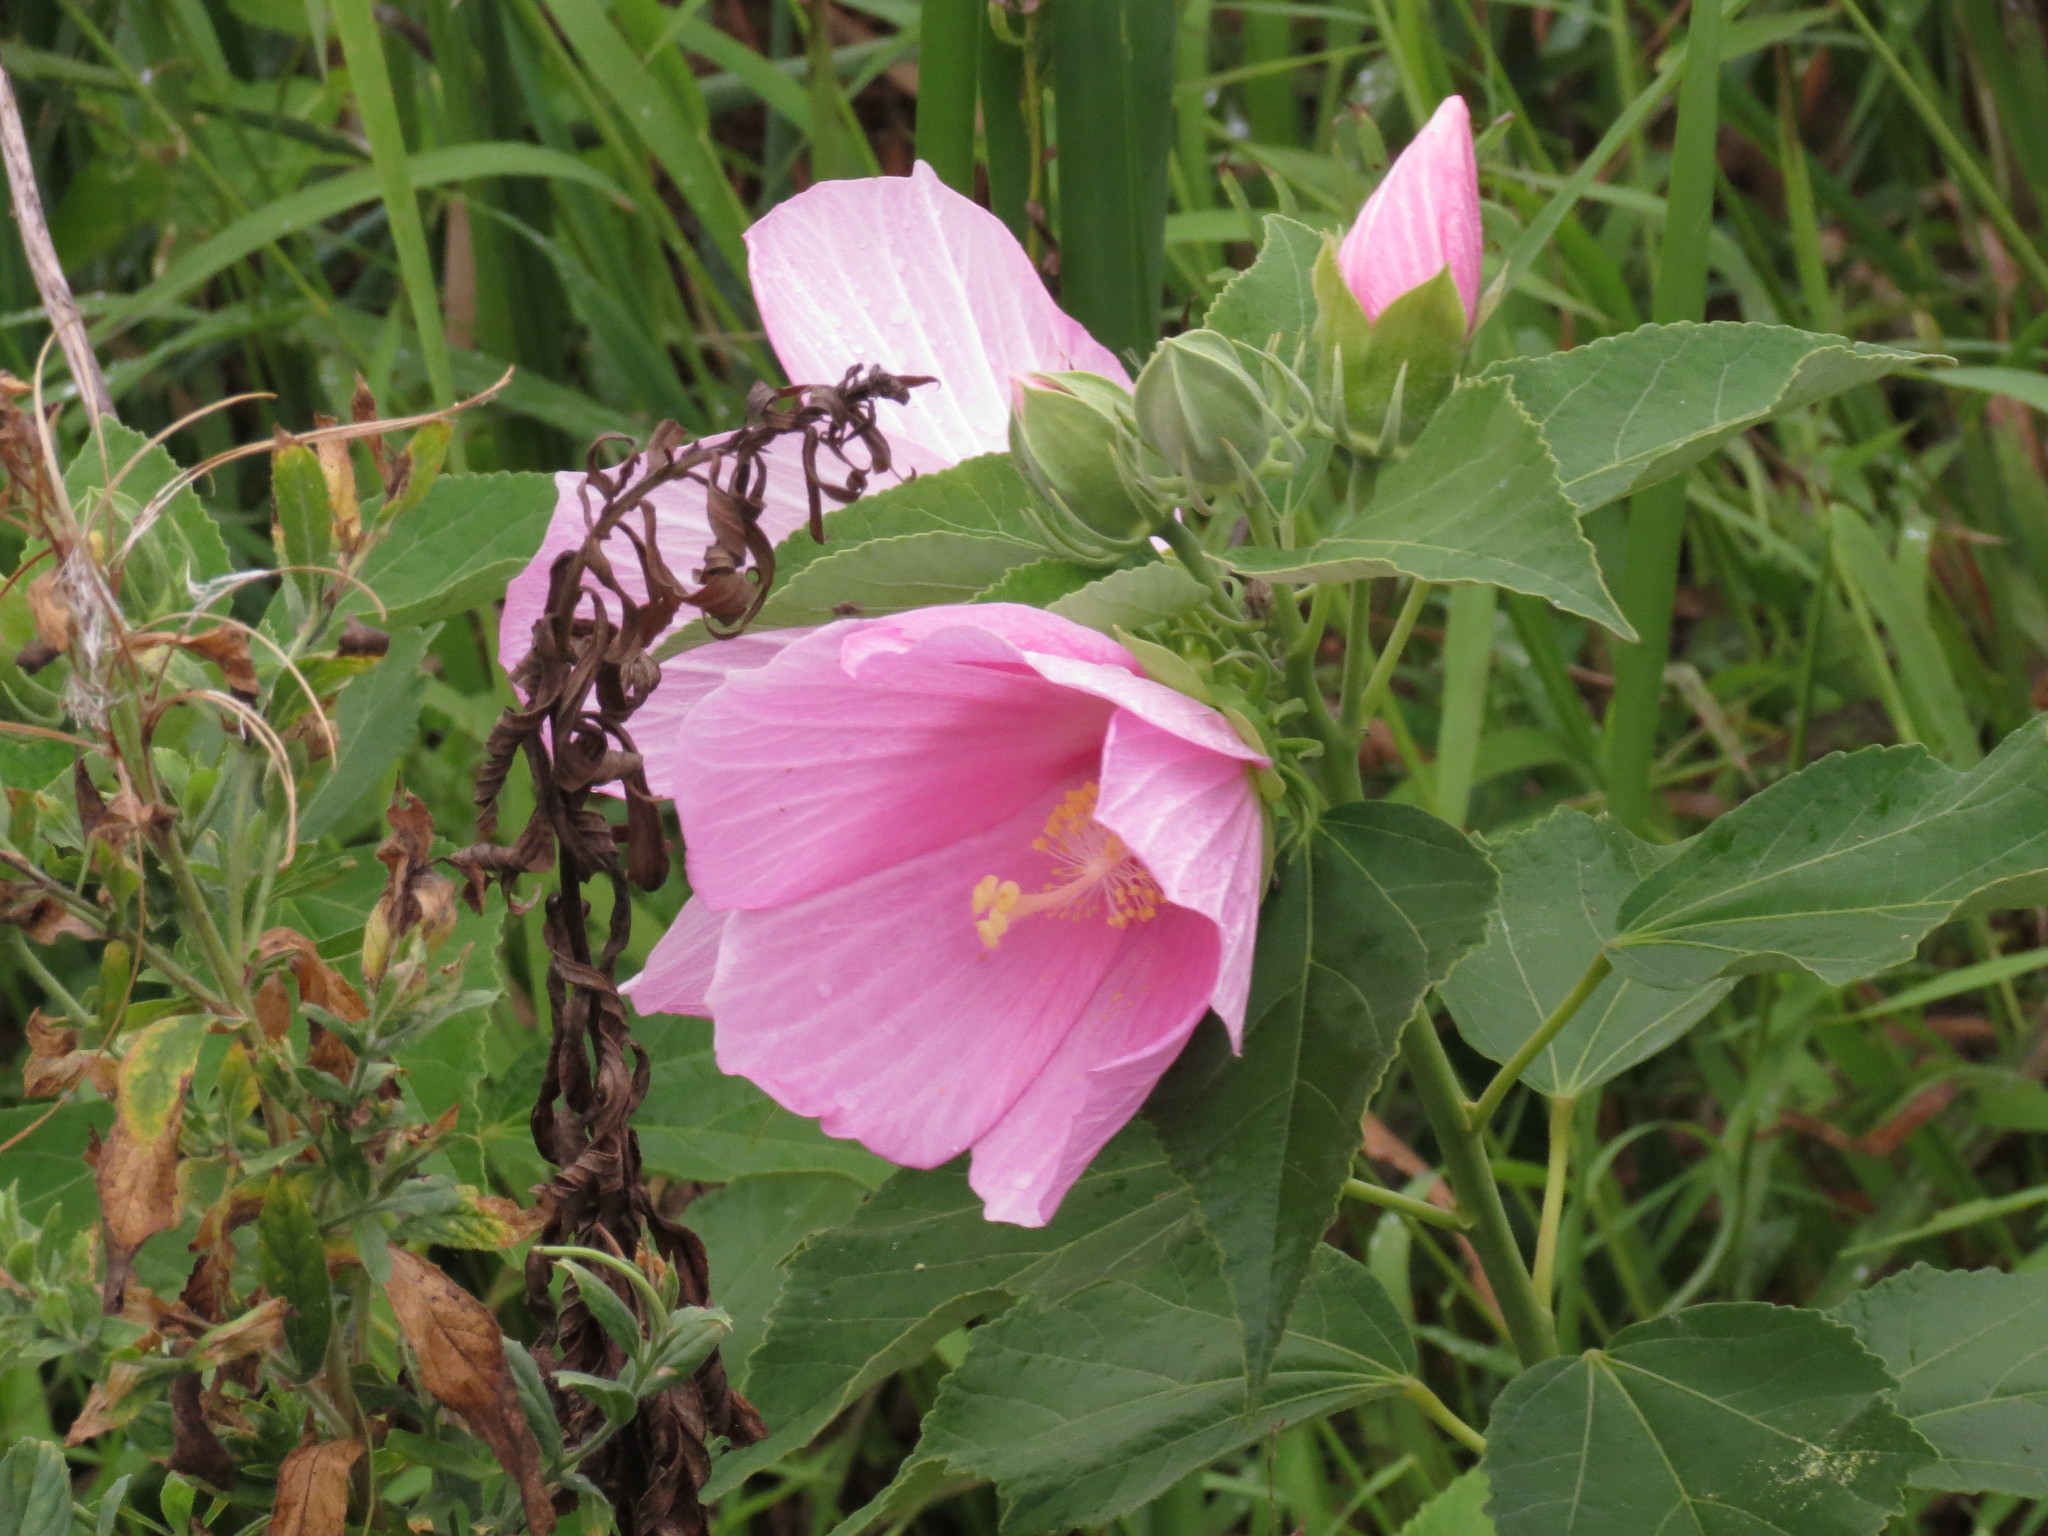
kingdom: Plantae
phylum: Tracheophyta
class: Magnoliopsida
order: Malvales
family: Malvaceae
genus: Hibiscus
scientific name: Hibiscus moscheutos
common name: Common rose-mallow
